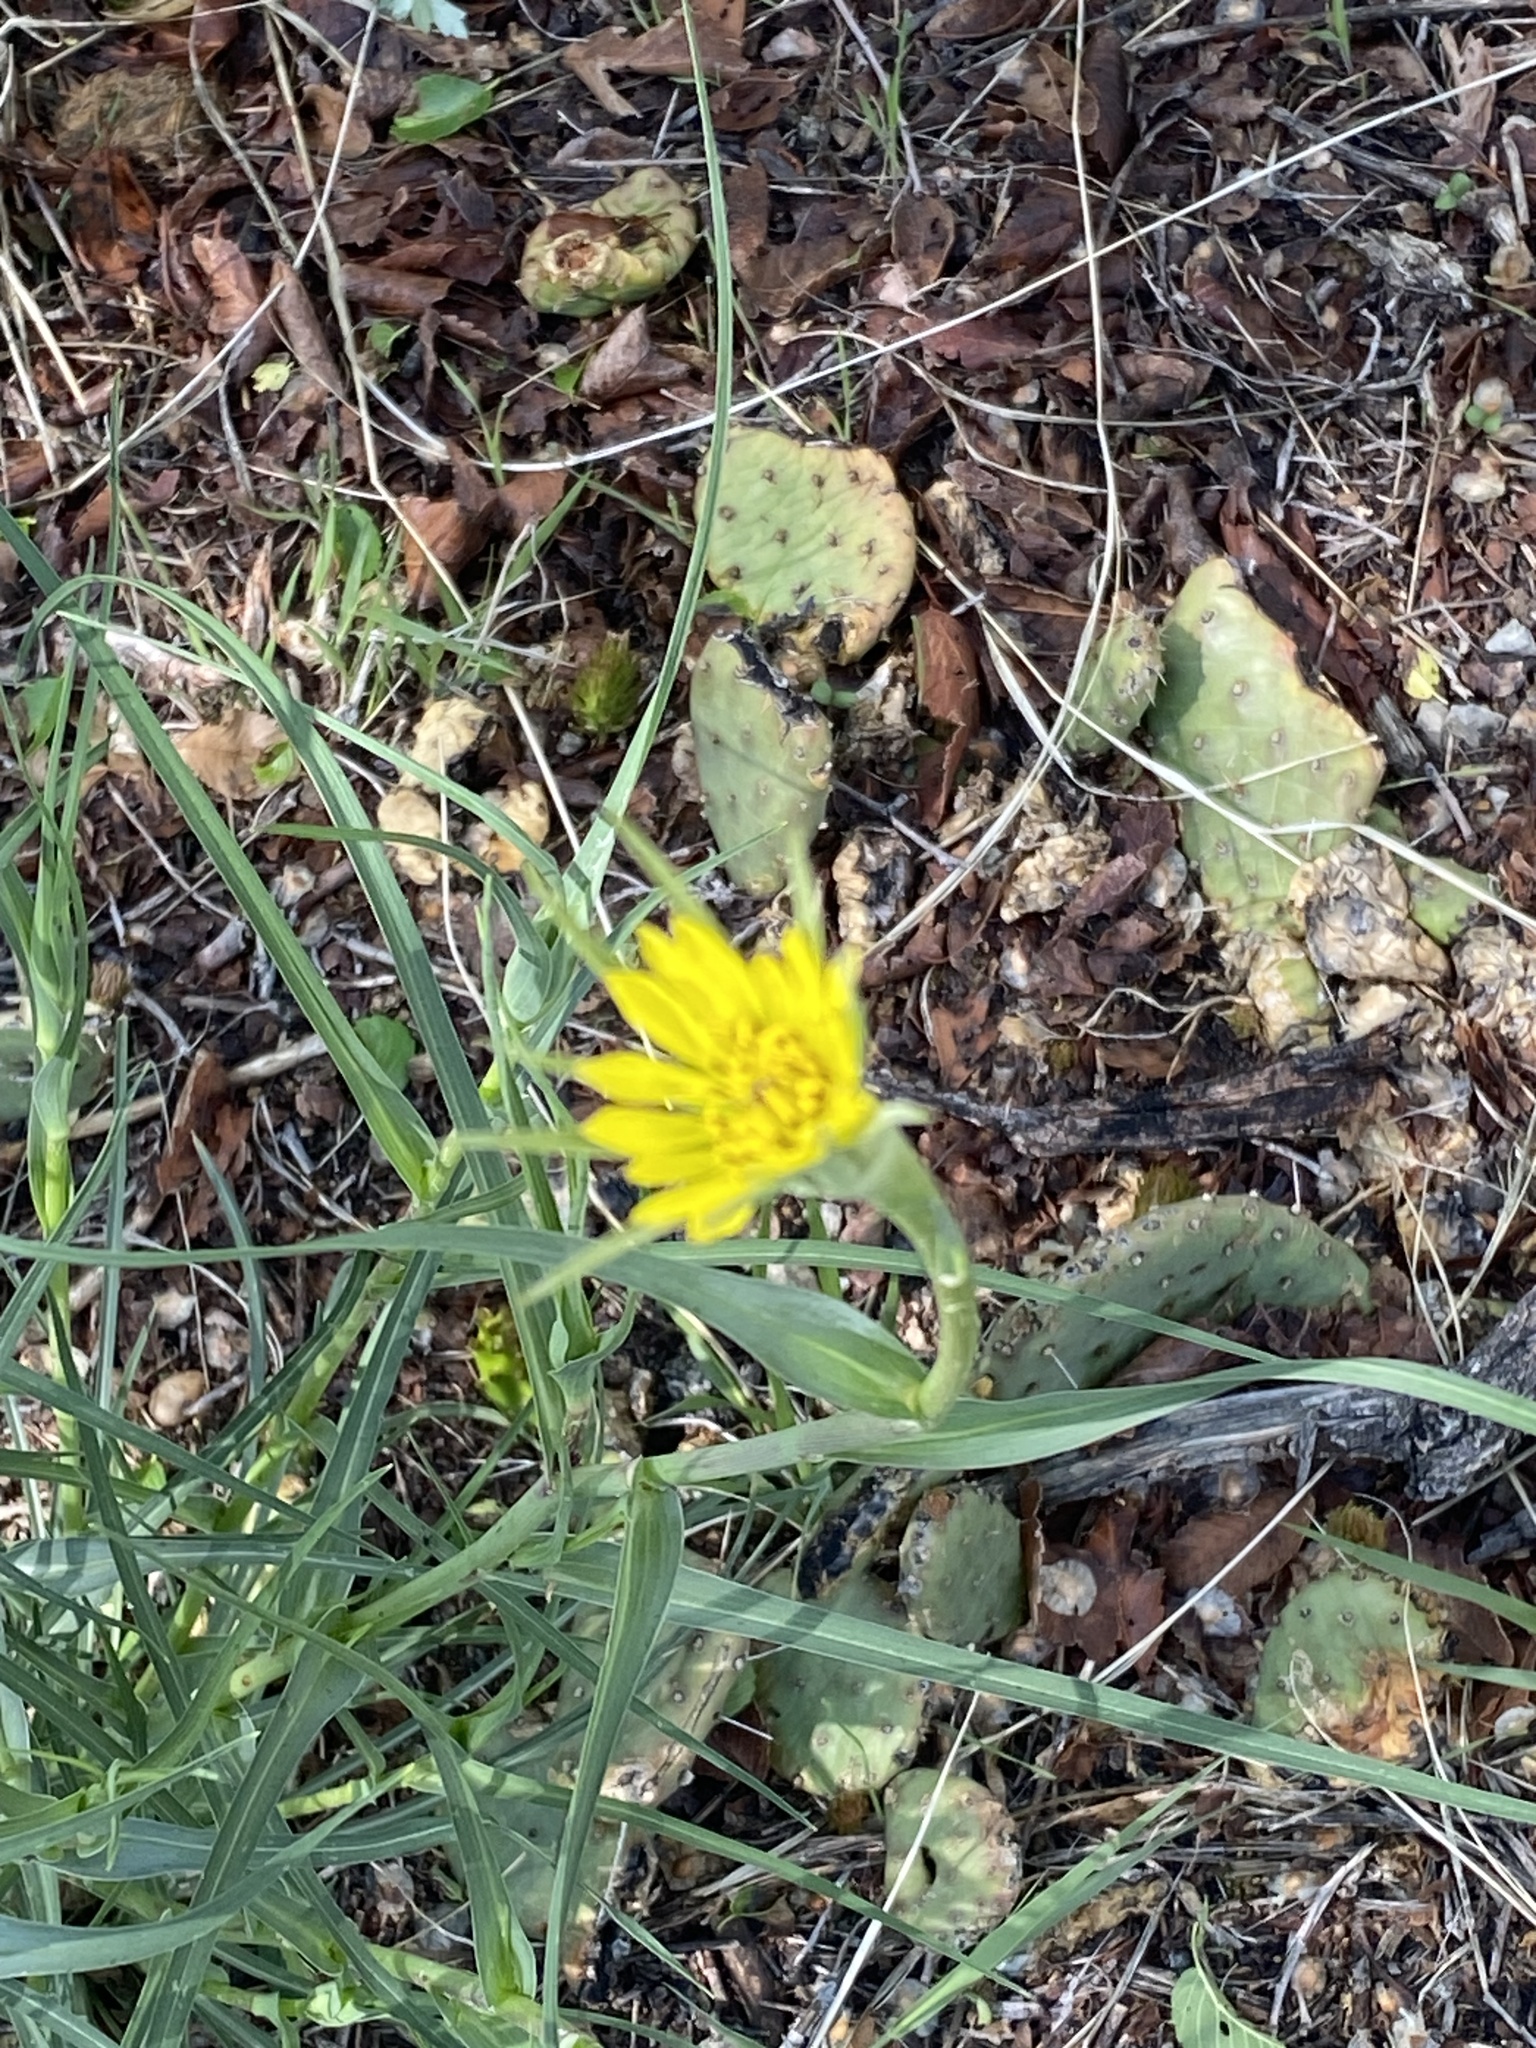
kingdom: Plantae
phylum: Tracheophyta
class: Magnoliopsida
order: Asterales
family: Asteraceae
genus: Tragopogon
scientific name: Tragopogon dubius
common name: Yellow salsify
